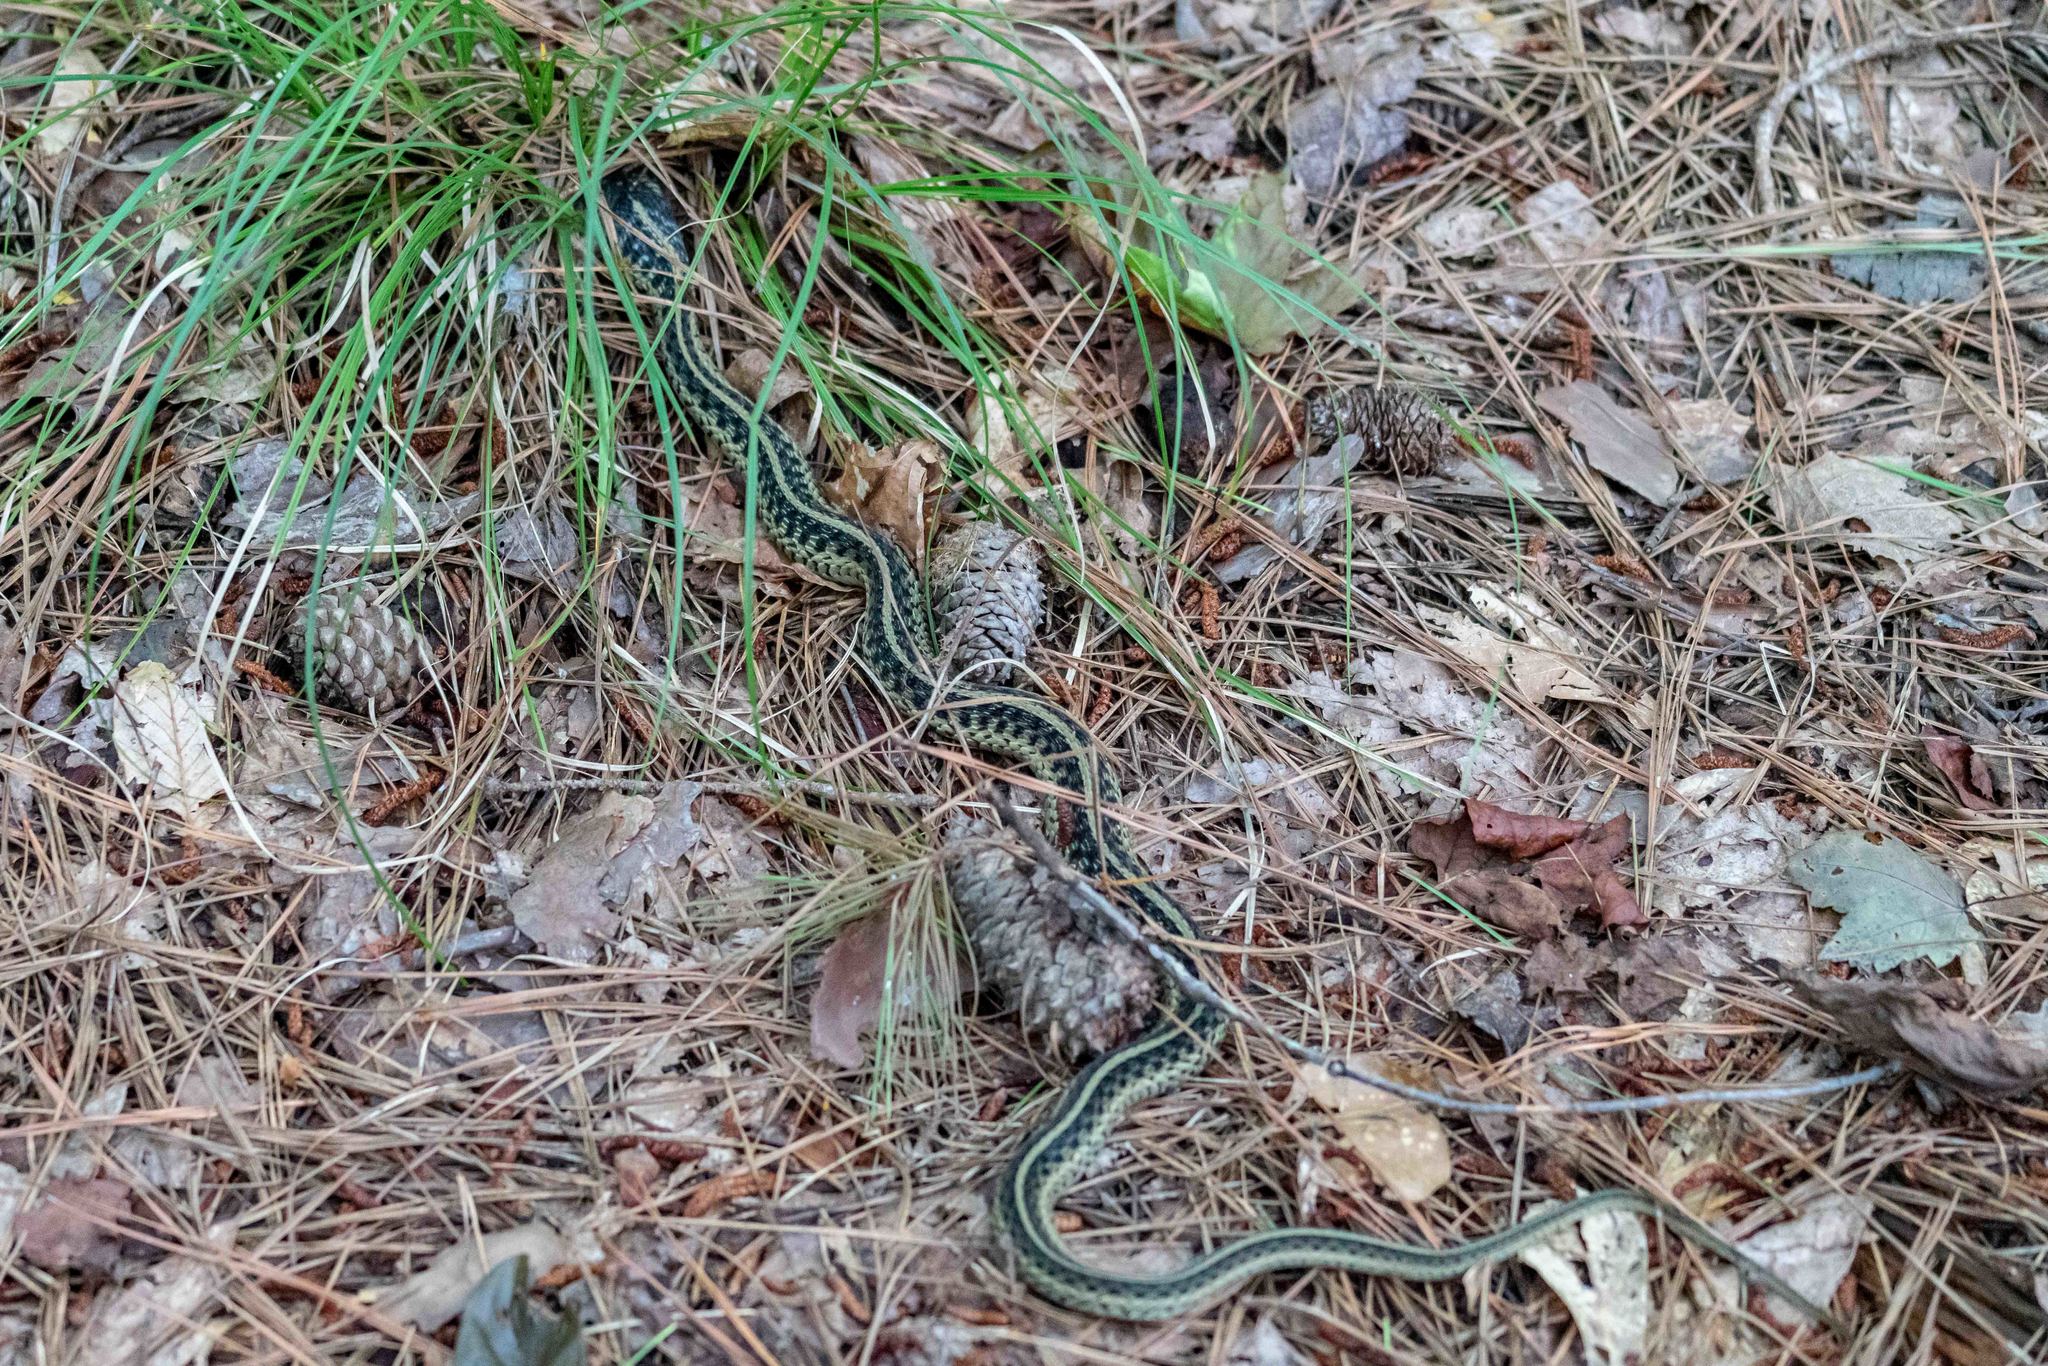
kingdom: Animalia
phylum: Chordata
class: Squamata
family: Colubridae
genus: Thamnophis
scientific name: Thamnophis sirtalis
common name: Common garter snake
